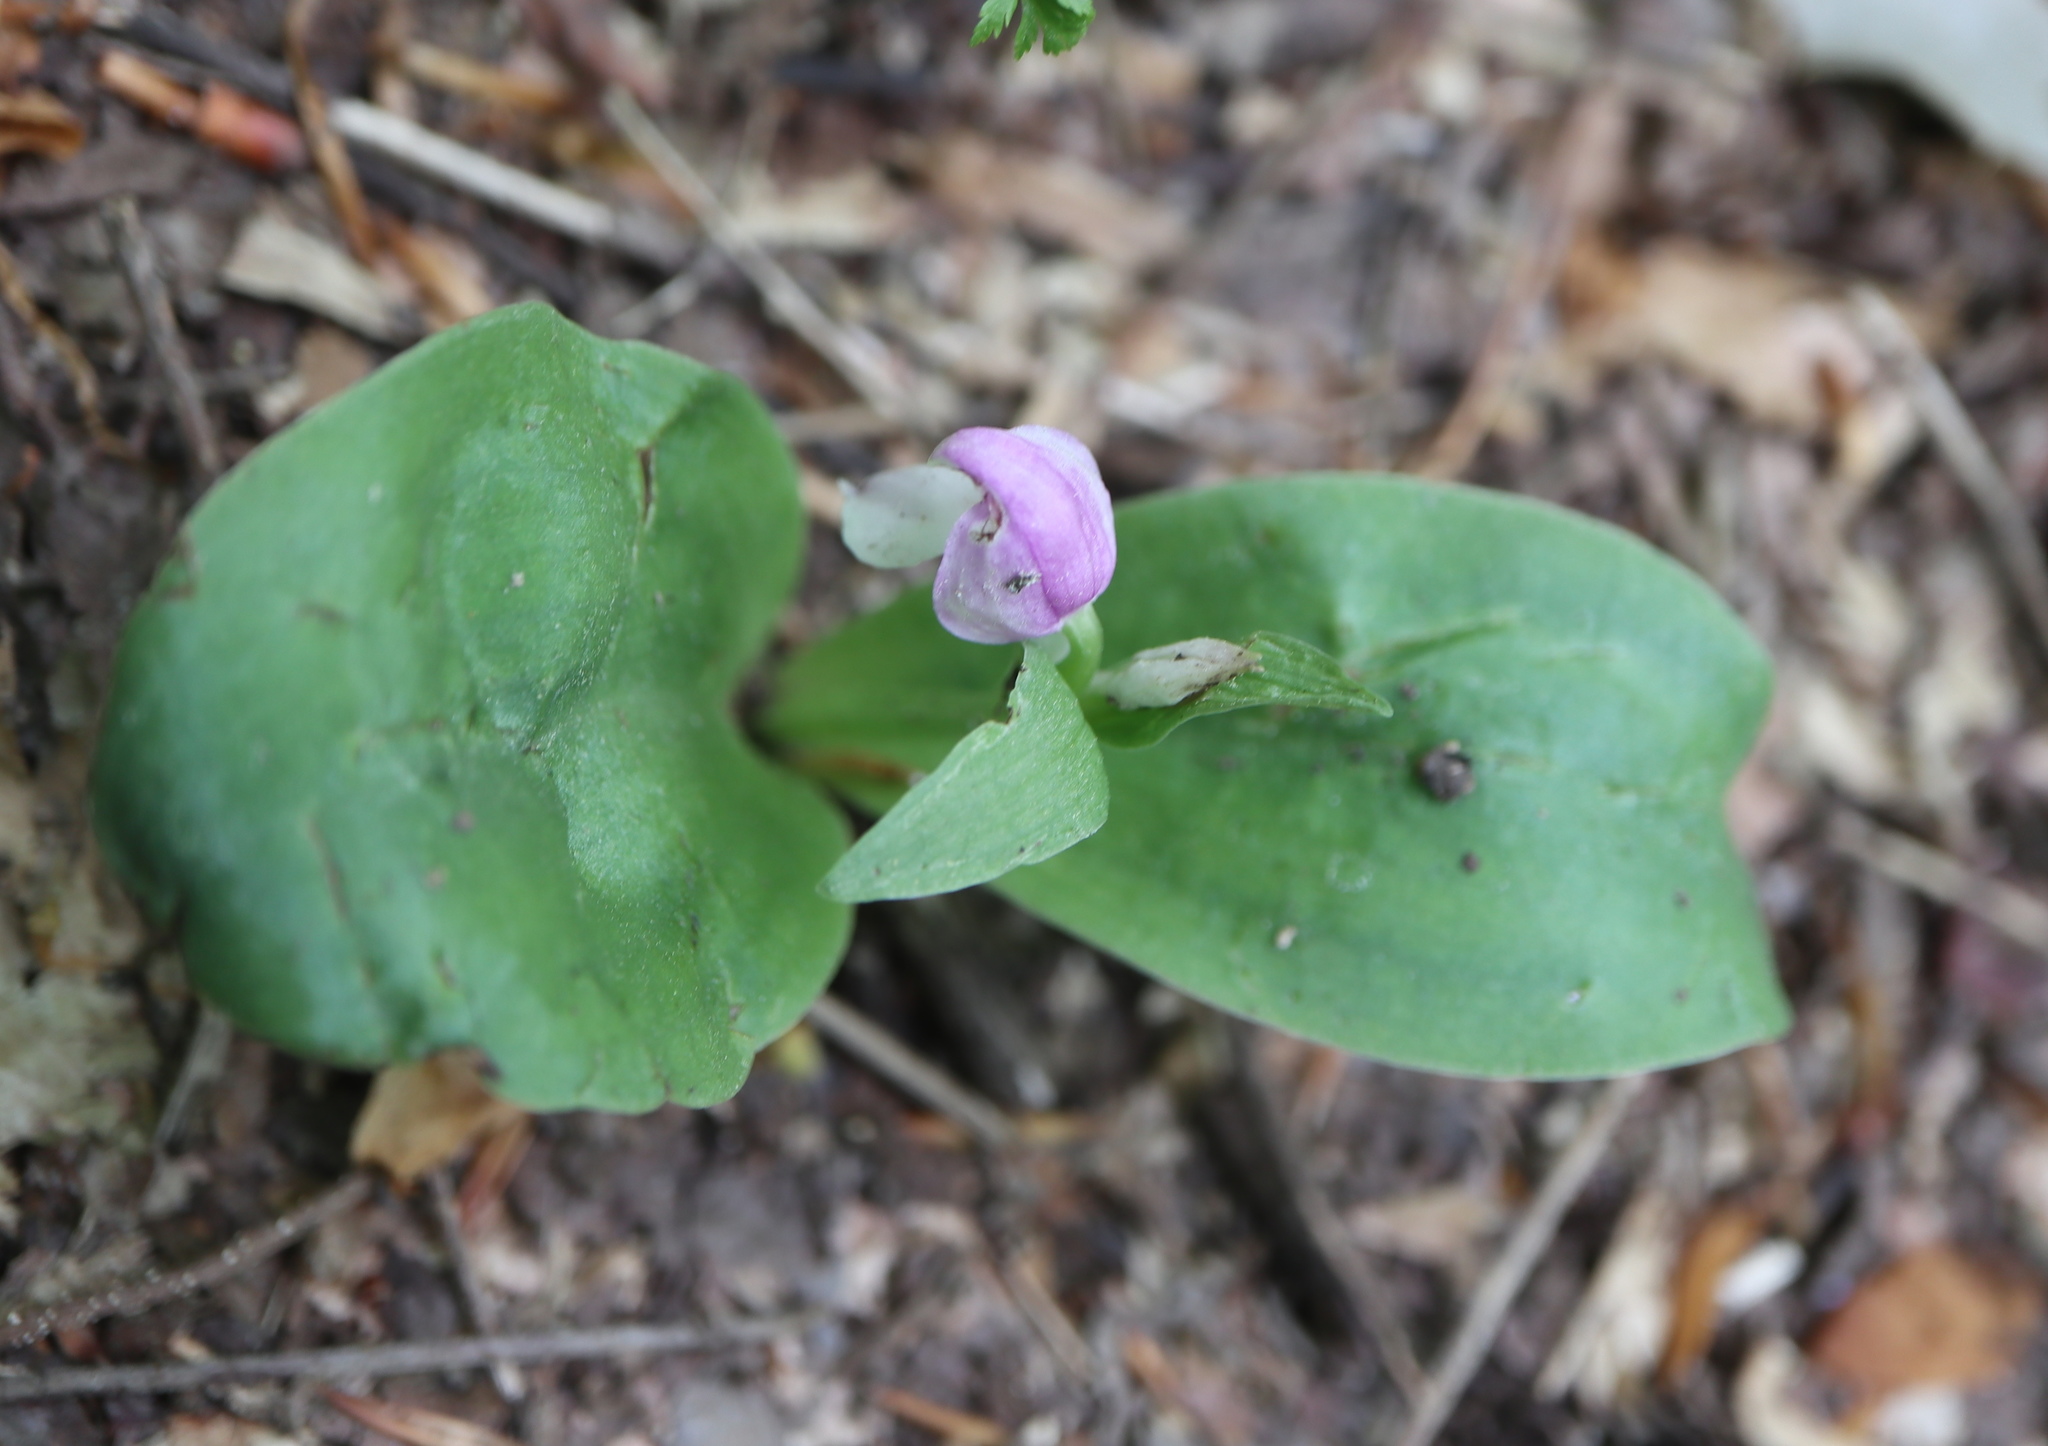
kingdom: Plantae
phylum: Tracheophyta
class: Liliopsida
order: Asparagales
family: Orchidaceae
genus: Galearis
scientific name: Galearis spectabilis
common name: Purple-hooded orchis
